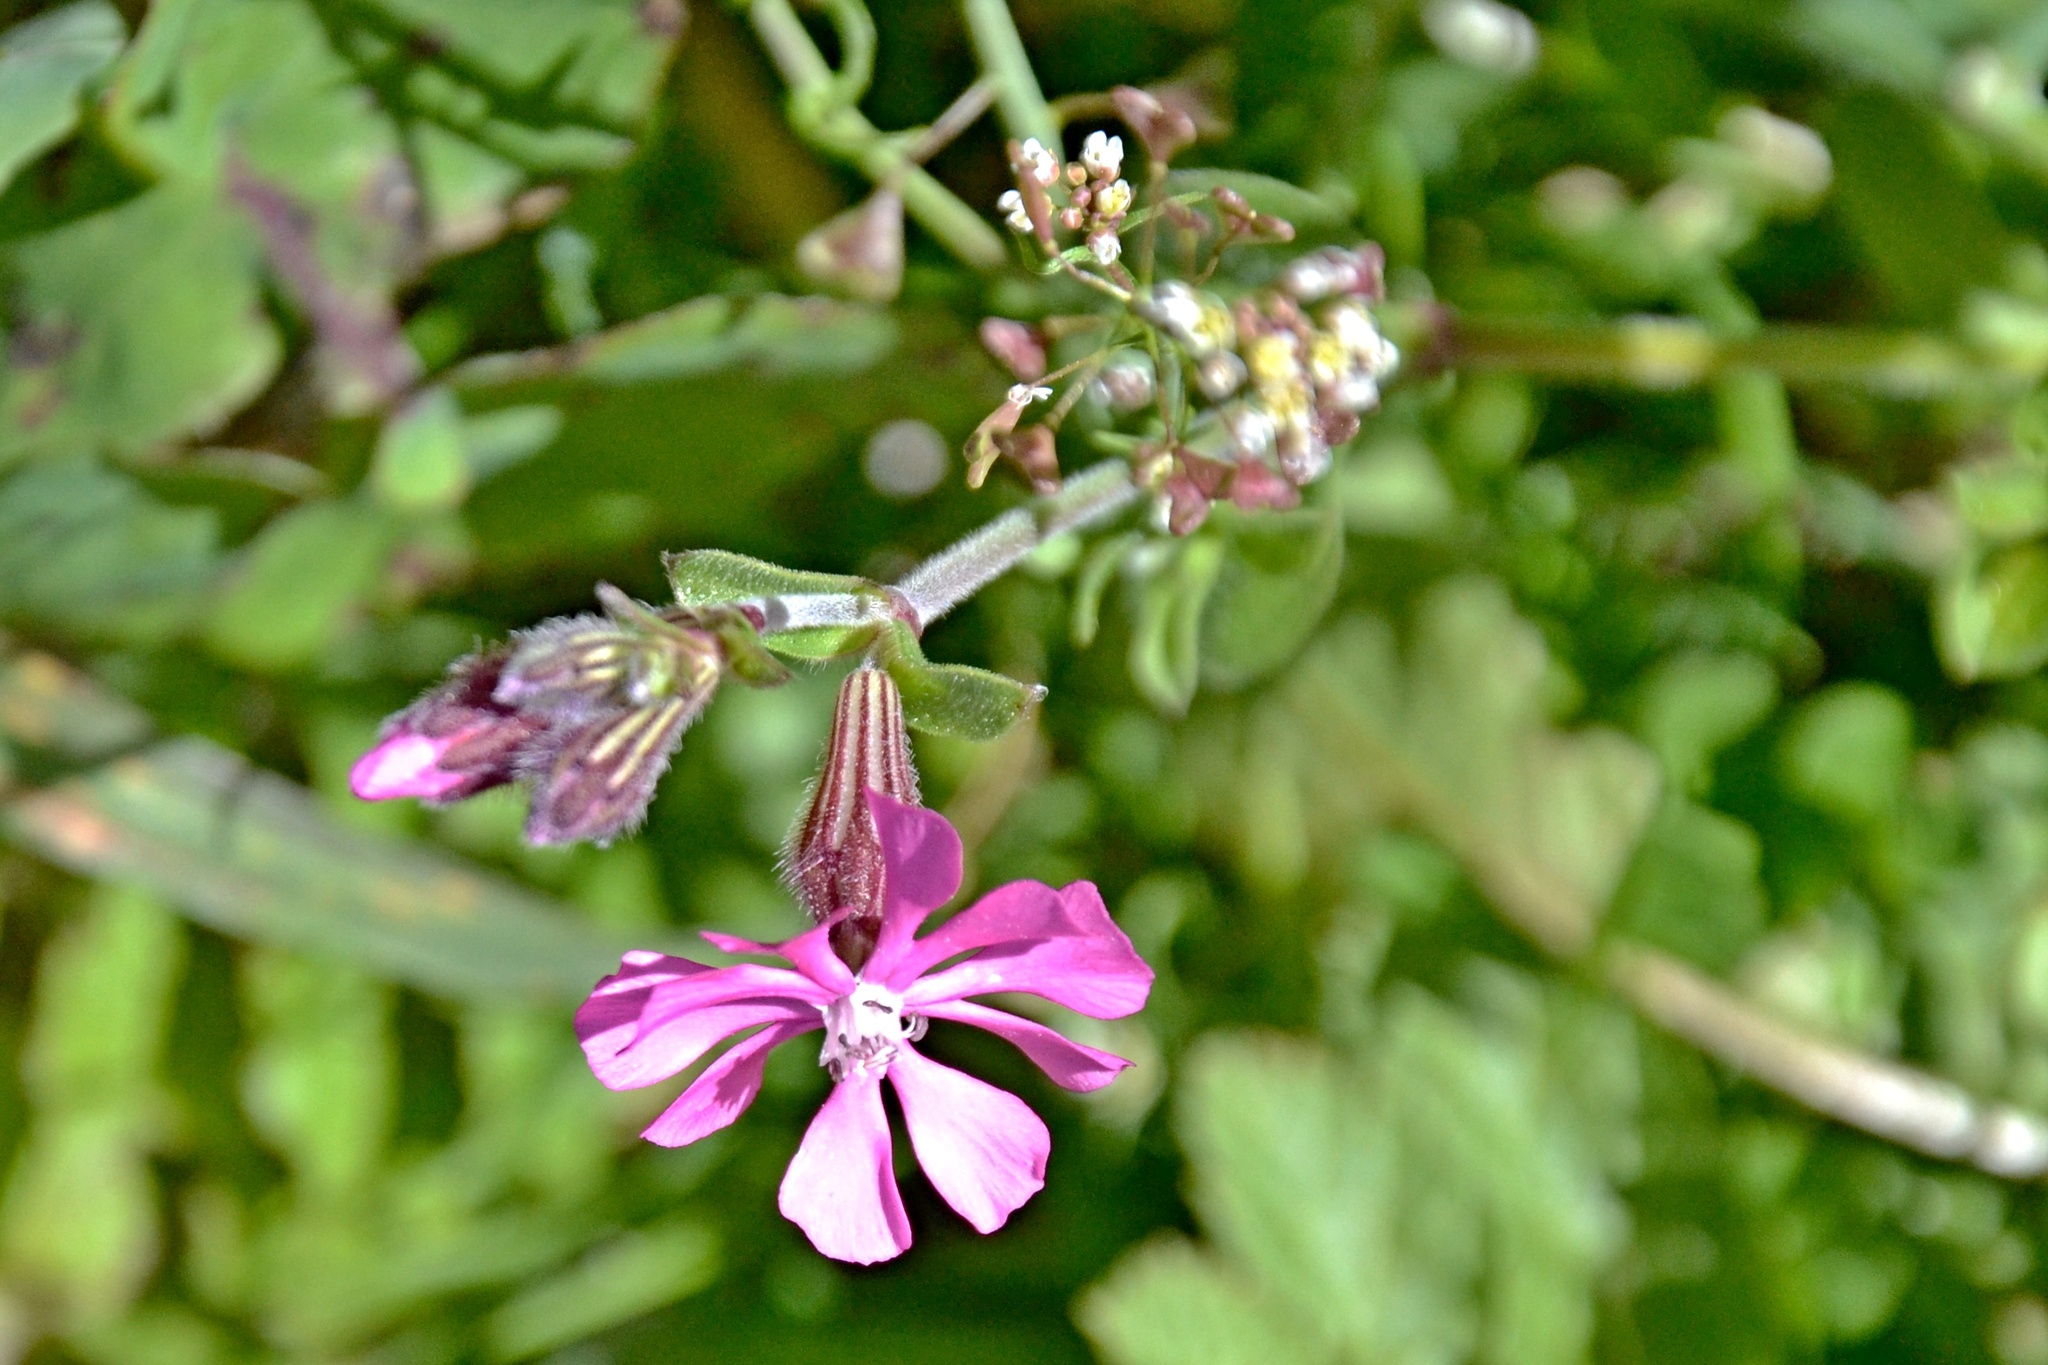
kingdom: Plantae
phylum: Tracheophyta
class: Magnoliopsida
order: Caryophyllales
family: Caryophyllaceae
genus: Silene
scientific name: Silene colorata
